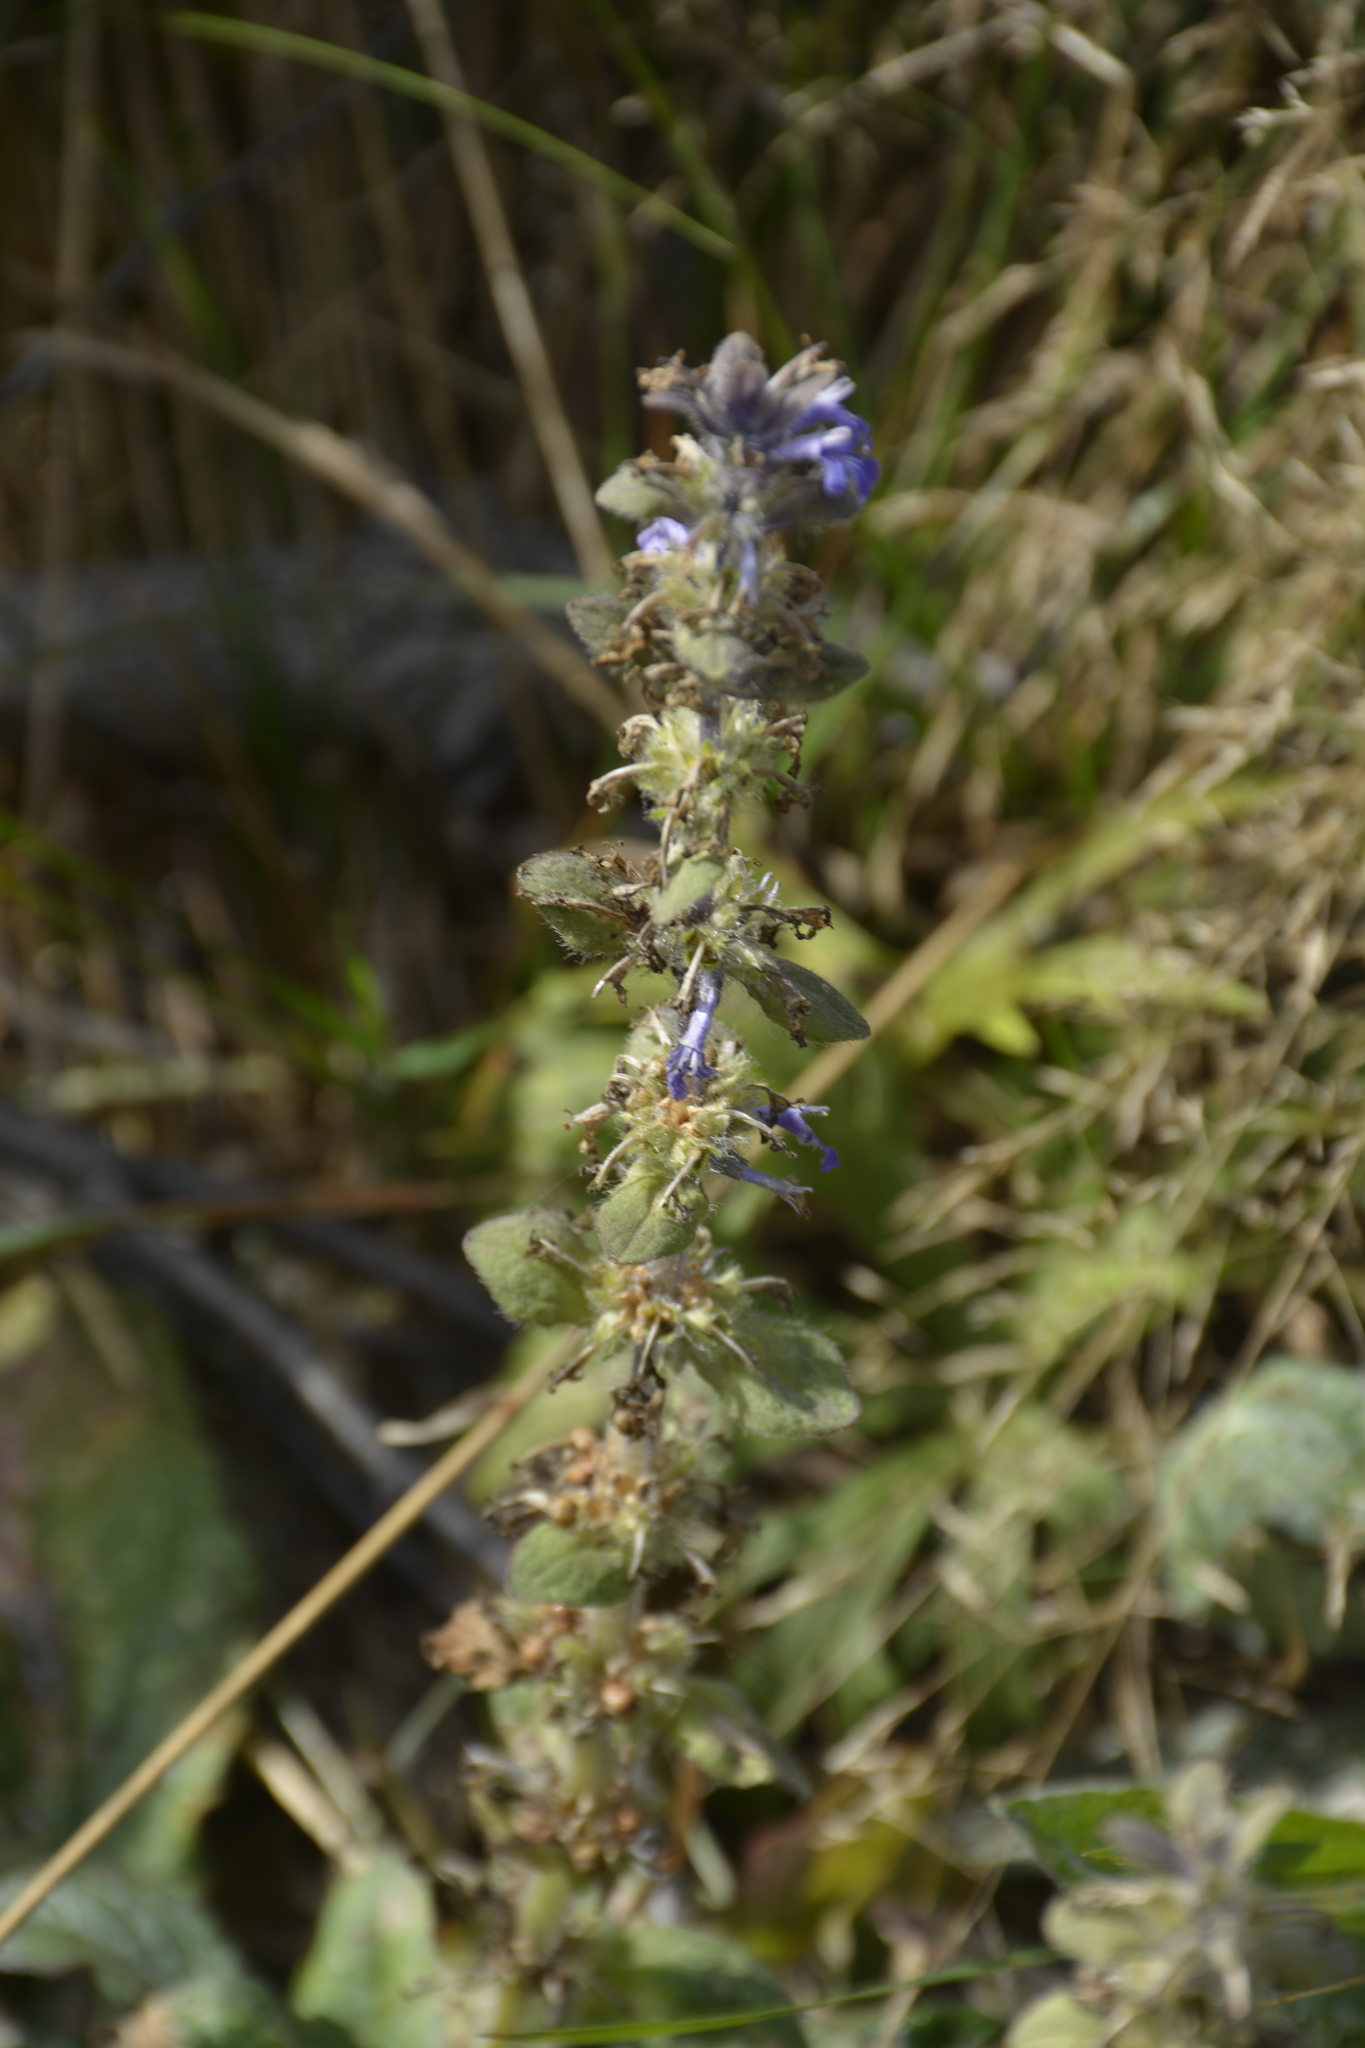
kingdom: Plantae
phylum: Tracheophyta
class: Magnoliopsida
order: Lamiales
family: Lamiaceae
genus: Ajuga
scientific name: Ajuga reptans
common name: Bugle
